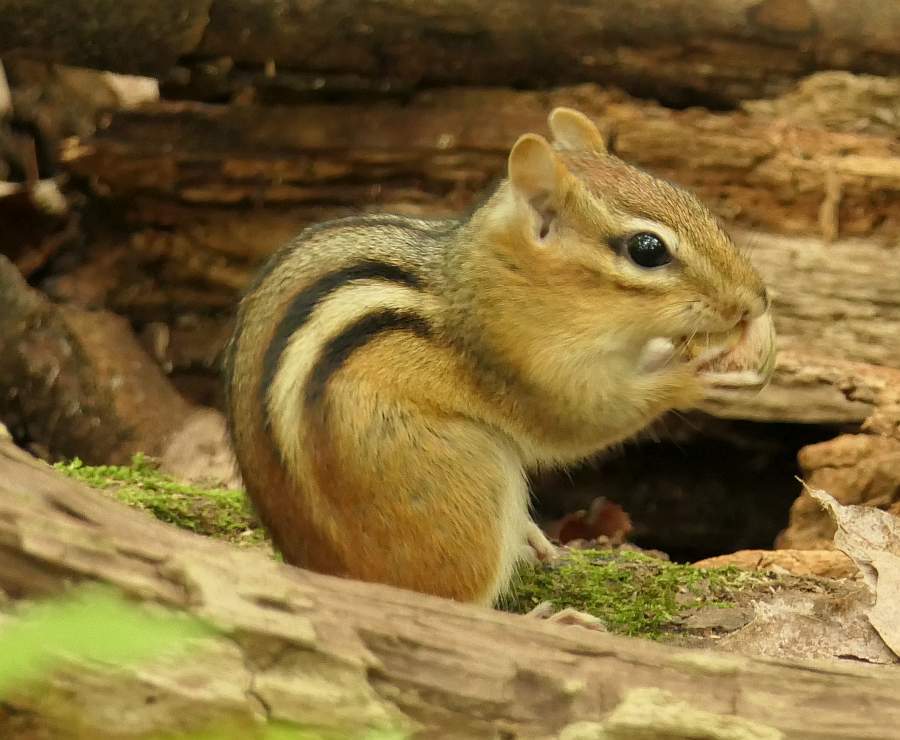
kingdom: Animalia
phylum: Chordata
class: Mammalia
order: Rodentia
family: Sciuridae
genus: Tamias
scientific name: Tamias striatus
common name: Eastern chipmunk
